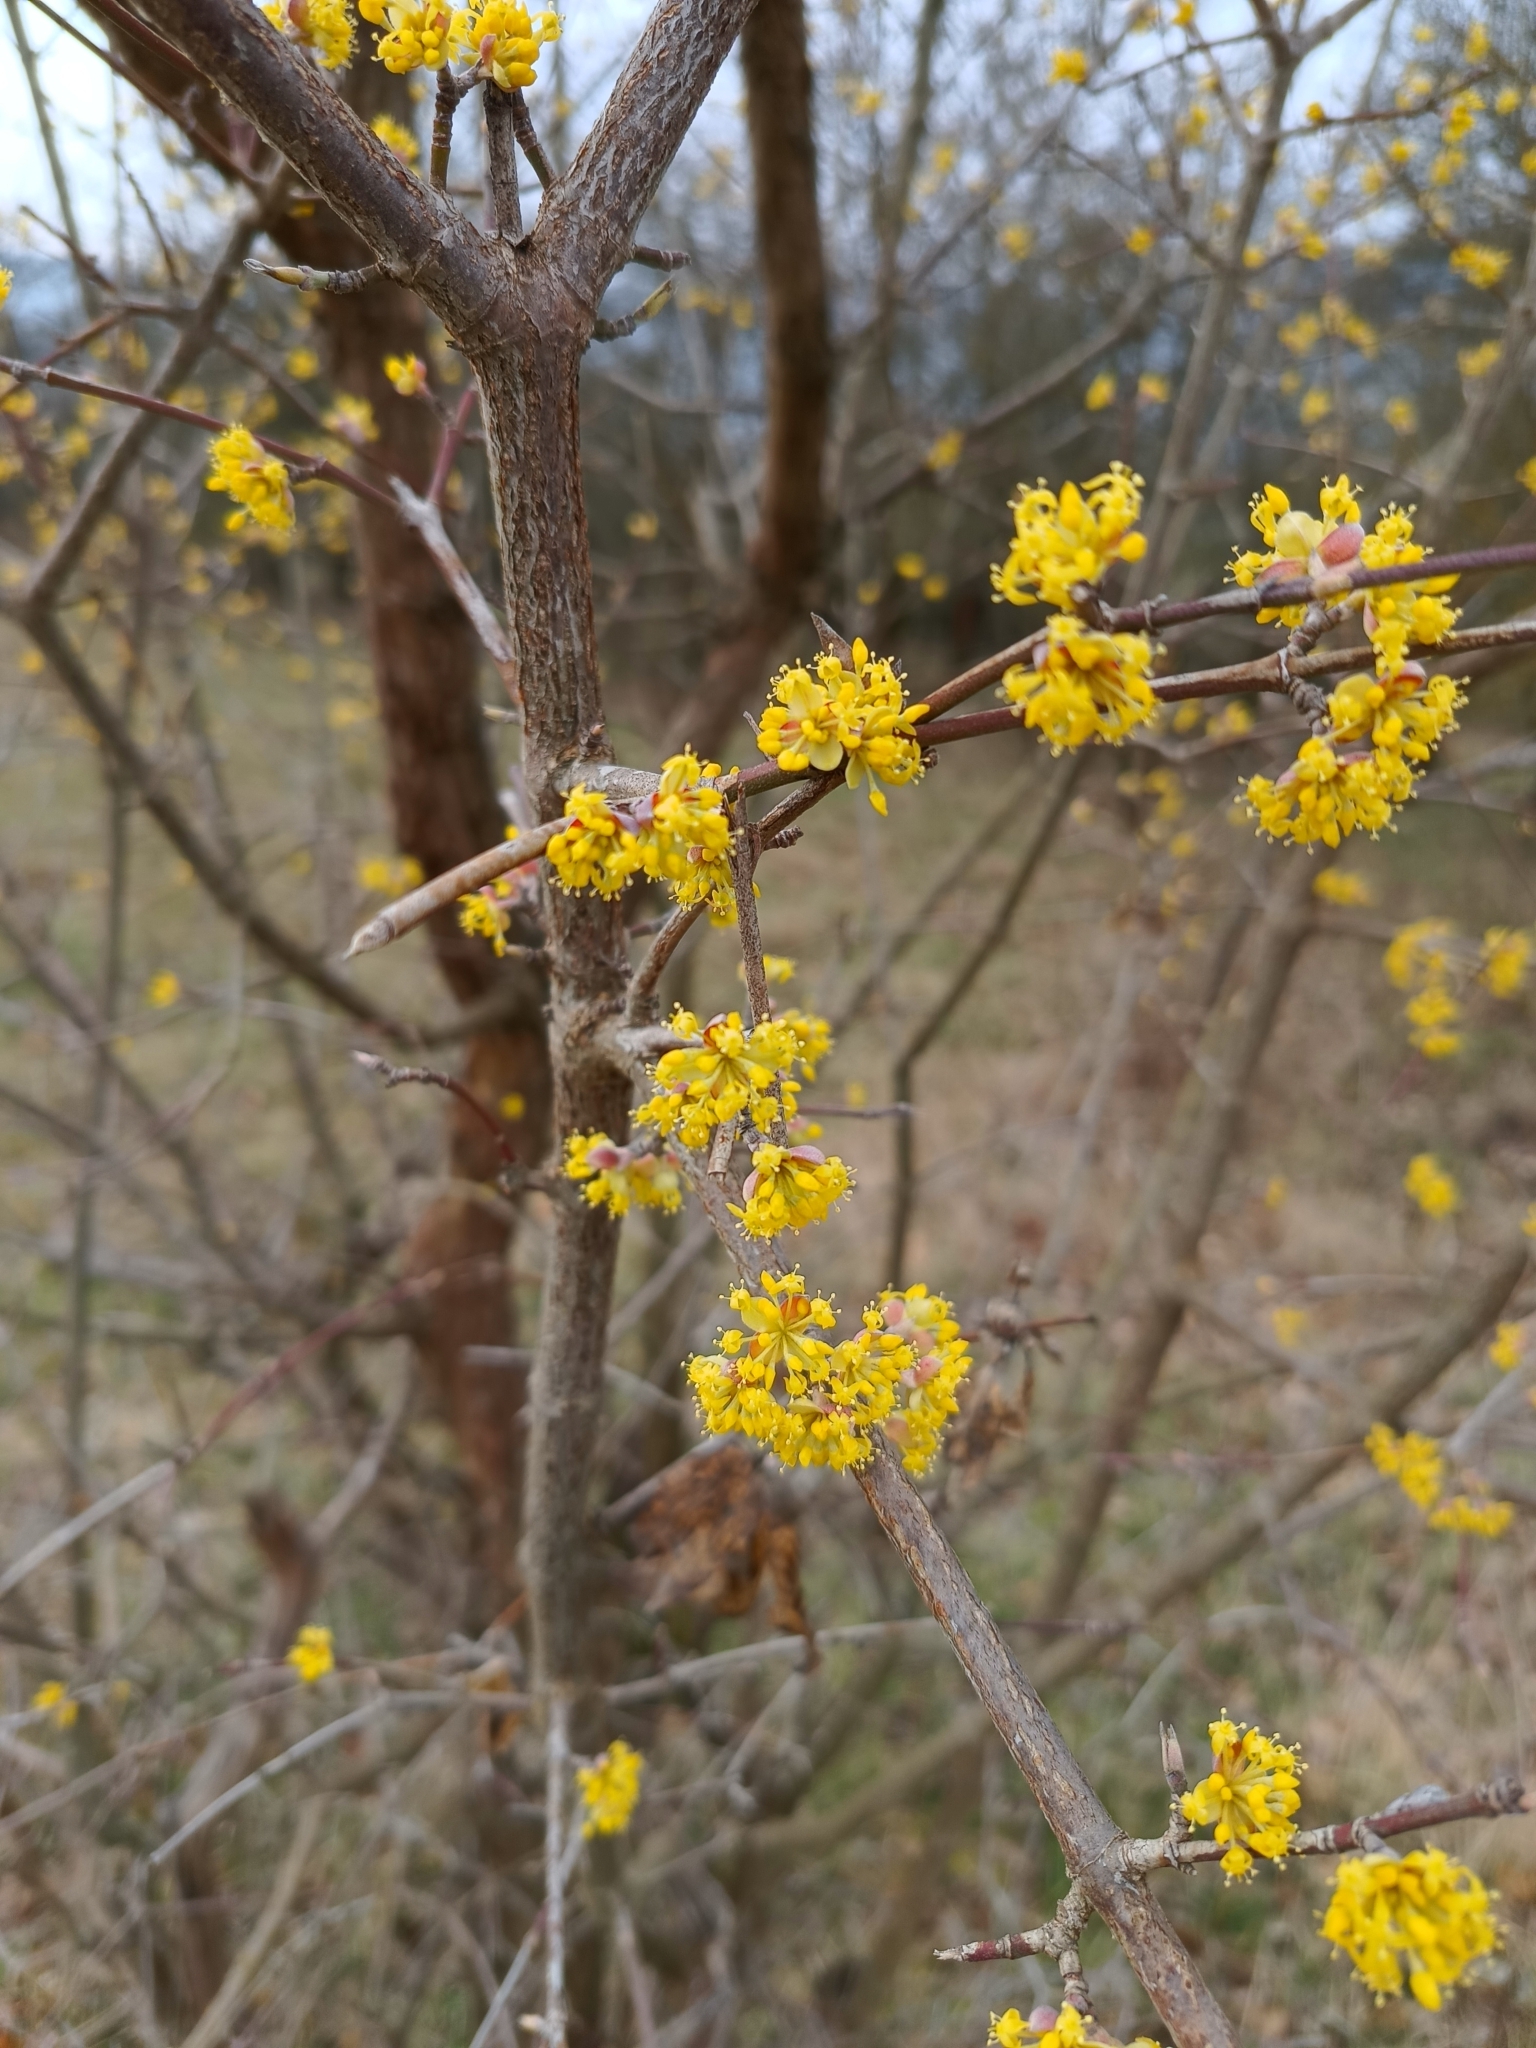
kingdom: Plantae
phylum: Tracheophyta
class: Magnoliopsida
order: Cornales
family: Cornaceae
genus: Cornus
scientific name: Cornus mas
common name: Cornelian-cherry
